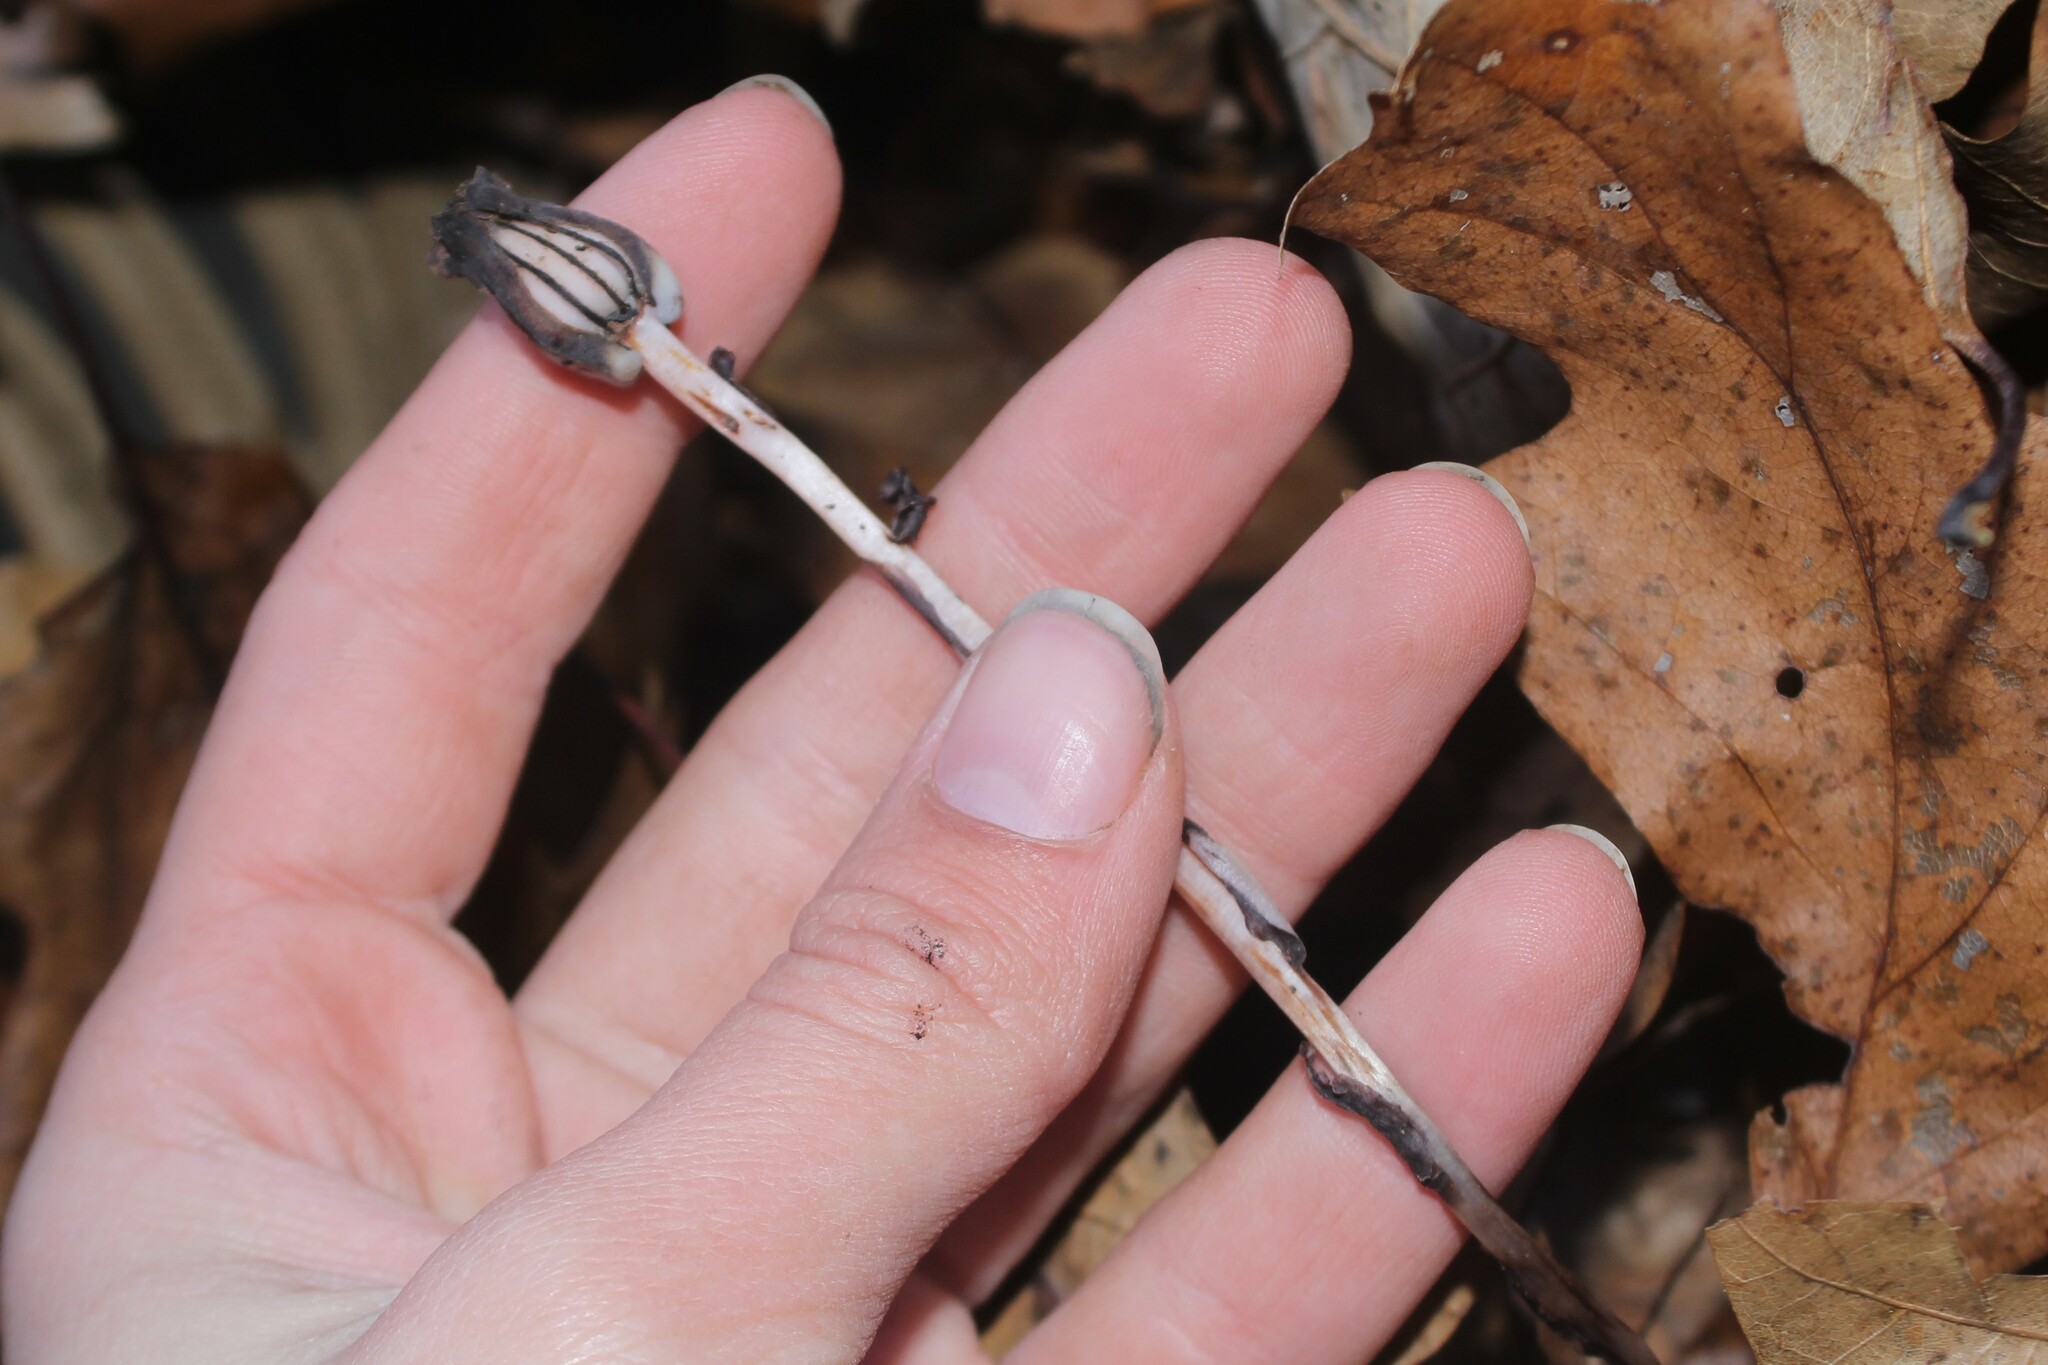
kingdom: Plantae
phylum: Tracheophyta
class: Magnoliopsida
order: Ericales
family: Ericaceae
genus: Monotropa
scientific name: Monotropa uniflora
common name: Convulsion root
